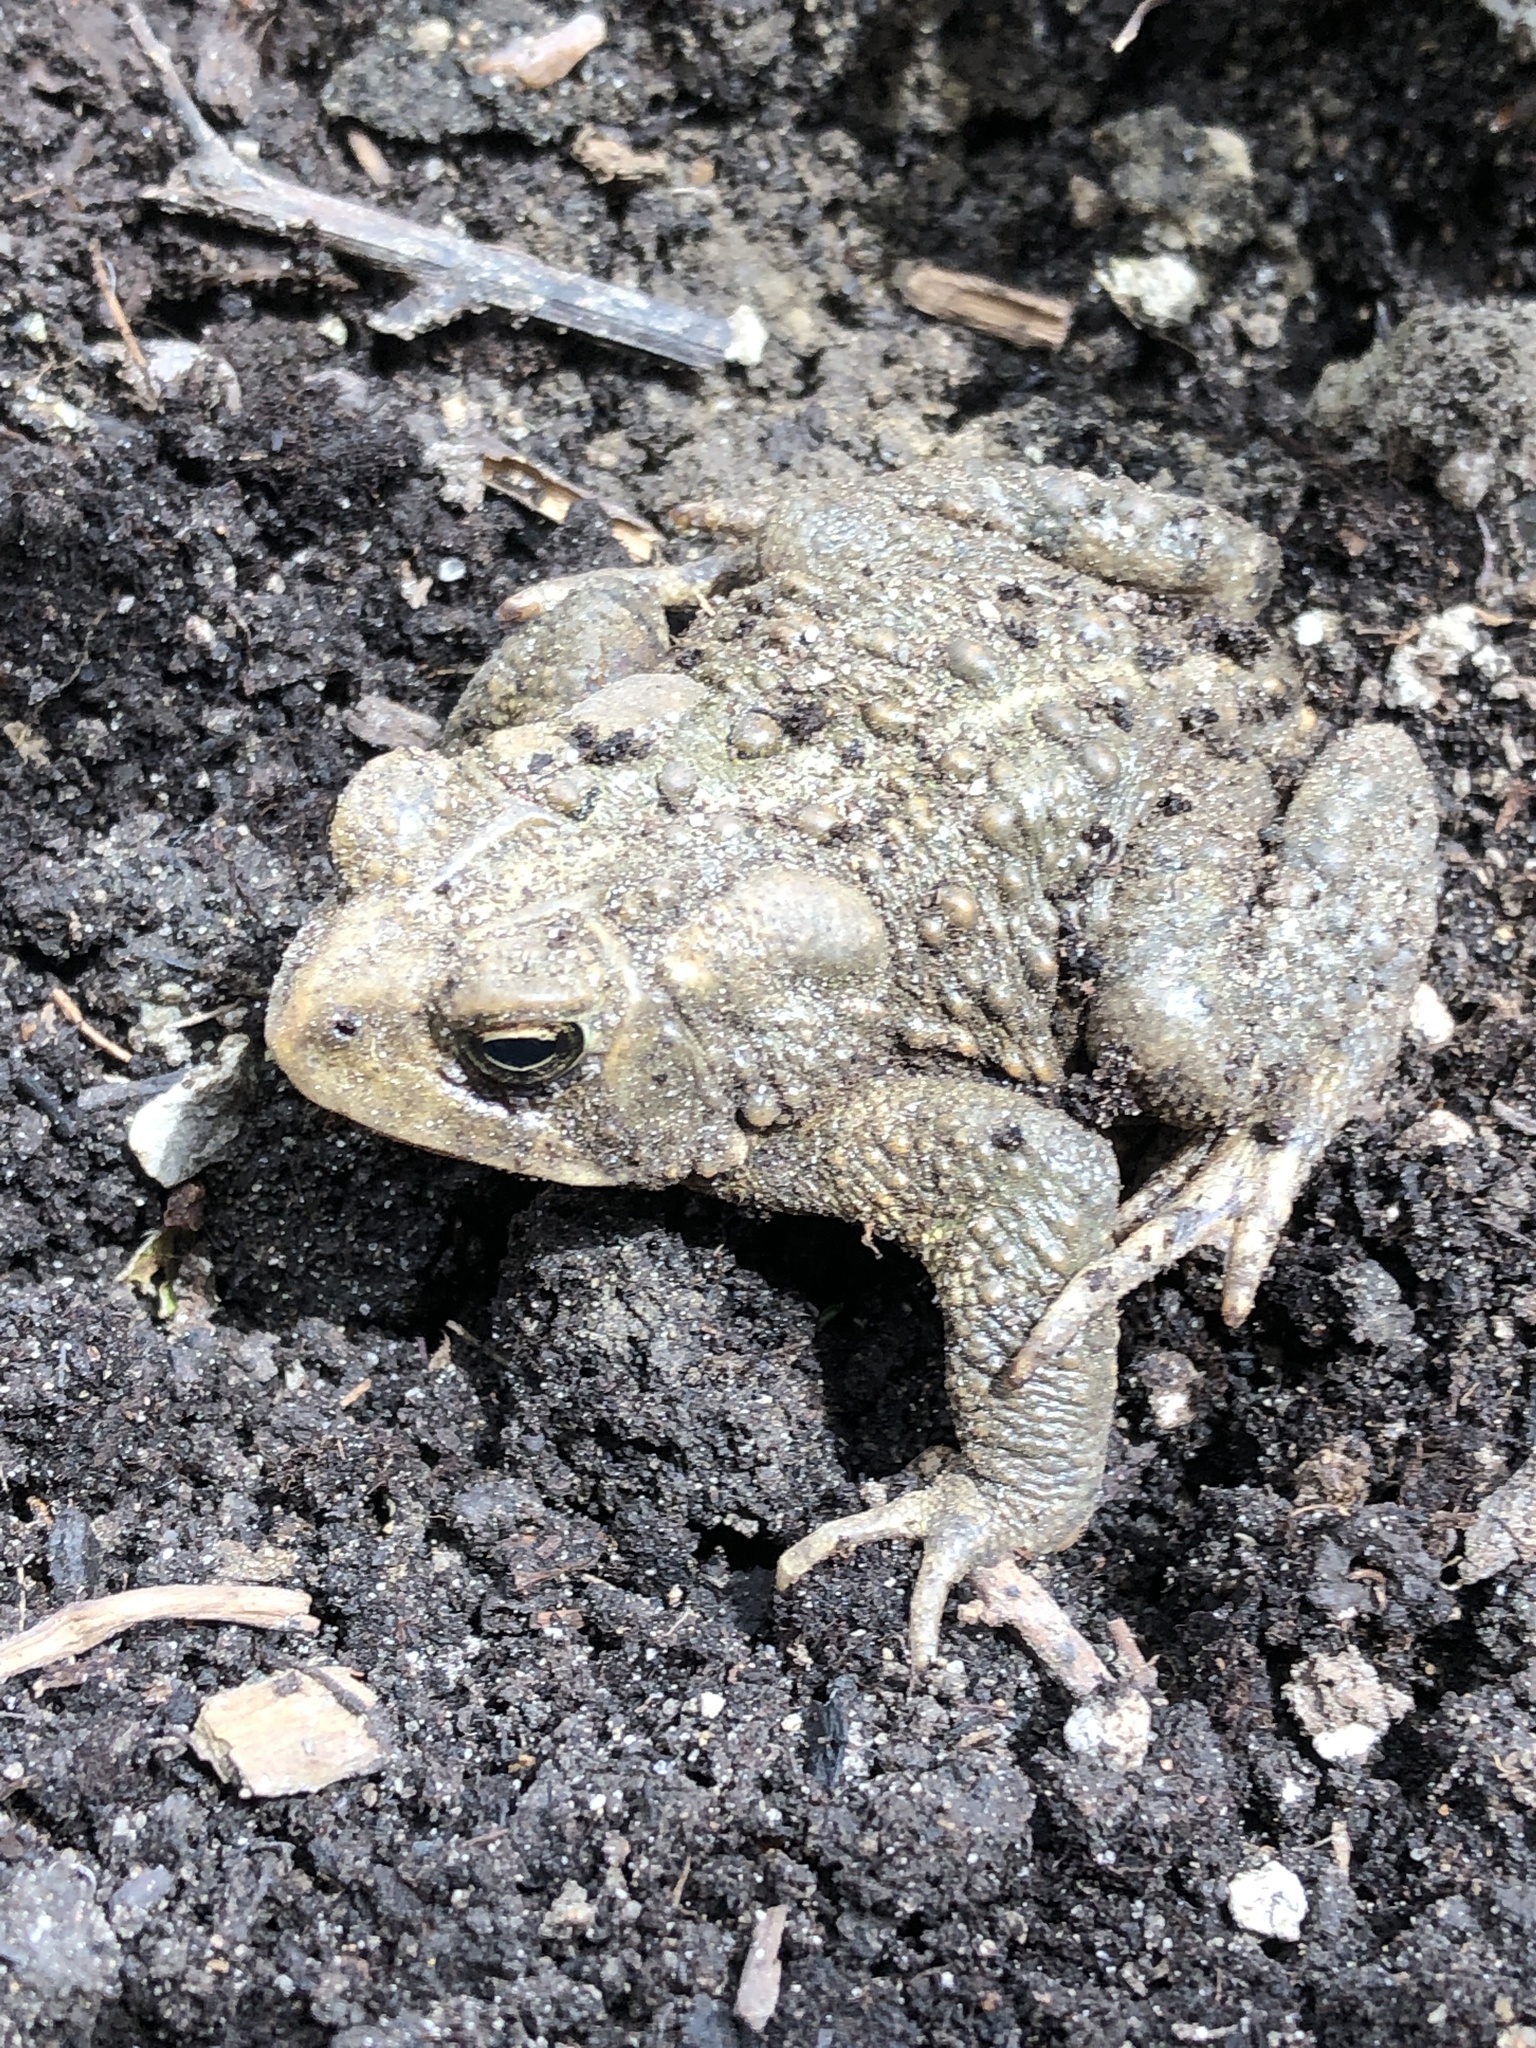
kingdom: Animalia
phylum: Chordata
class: Amphibia
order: Anura
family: Bufonidae
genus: Anaxyrus
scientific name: Anaxyrus americanus
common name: American toad
